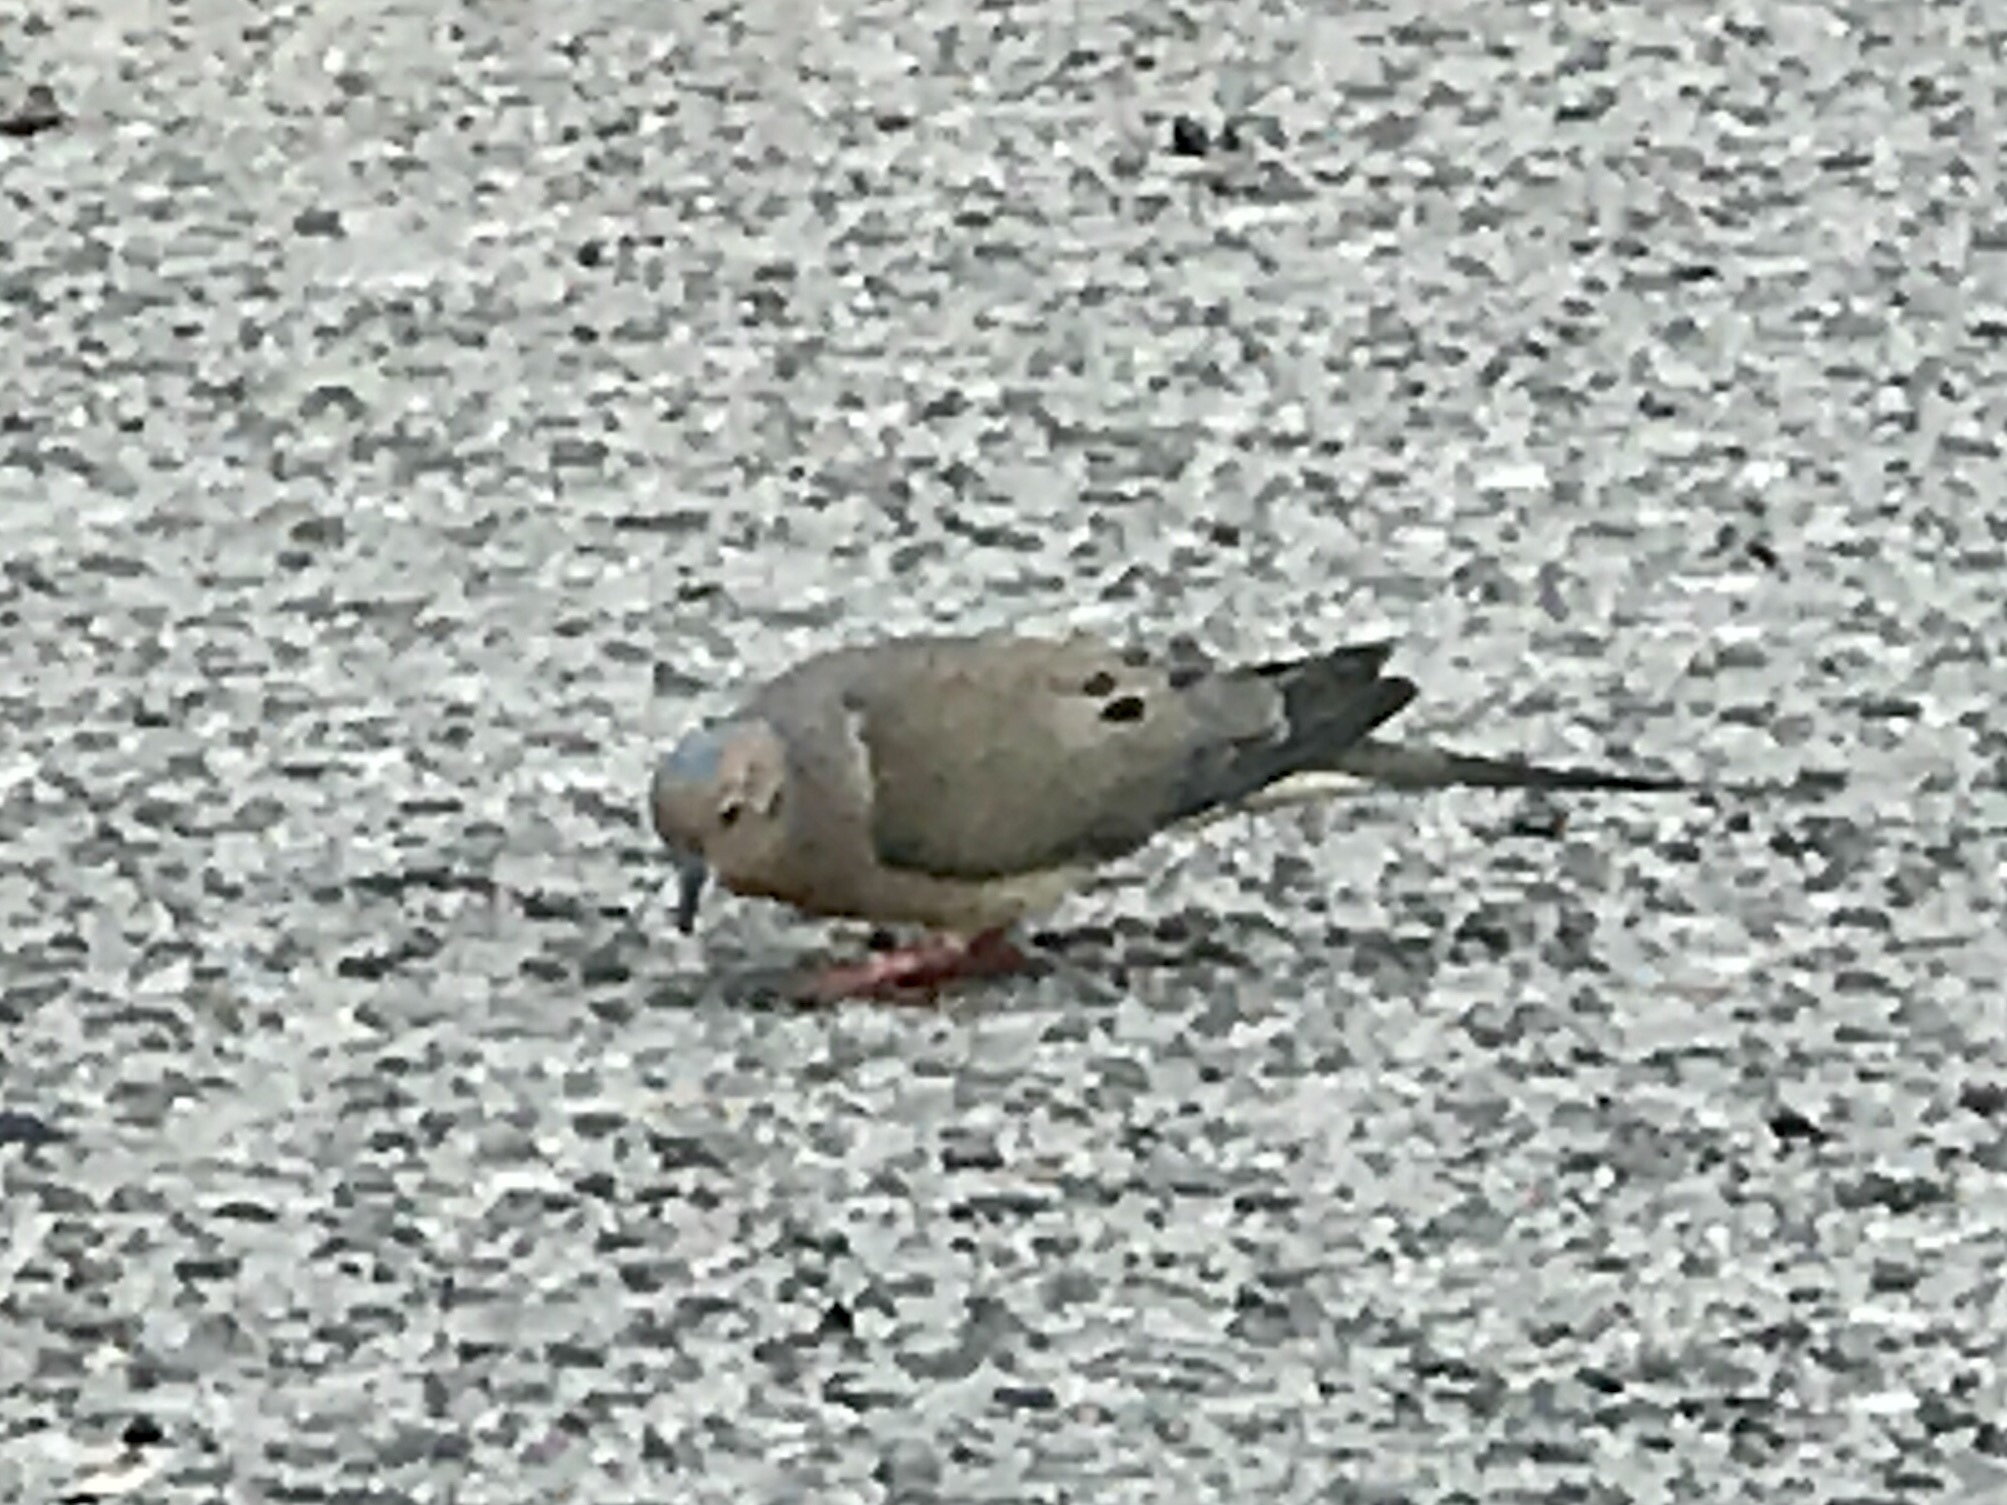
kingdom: Animalia
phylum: Chordata
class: Aves
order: Columbiformes
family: Columbidae
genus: Zenaida
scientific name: Zenaida macroura
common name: Mourning dove
